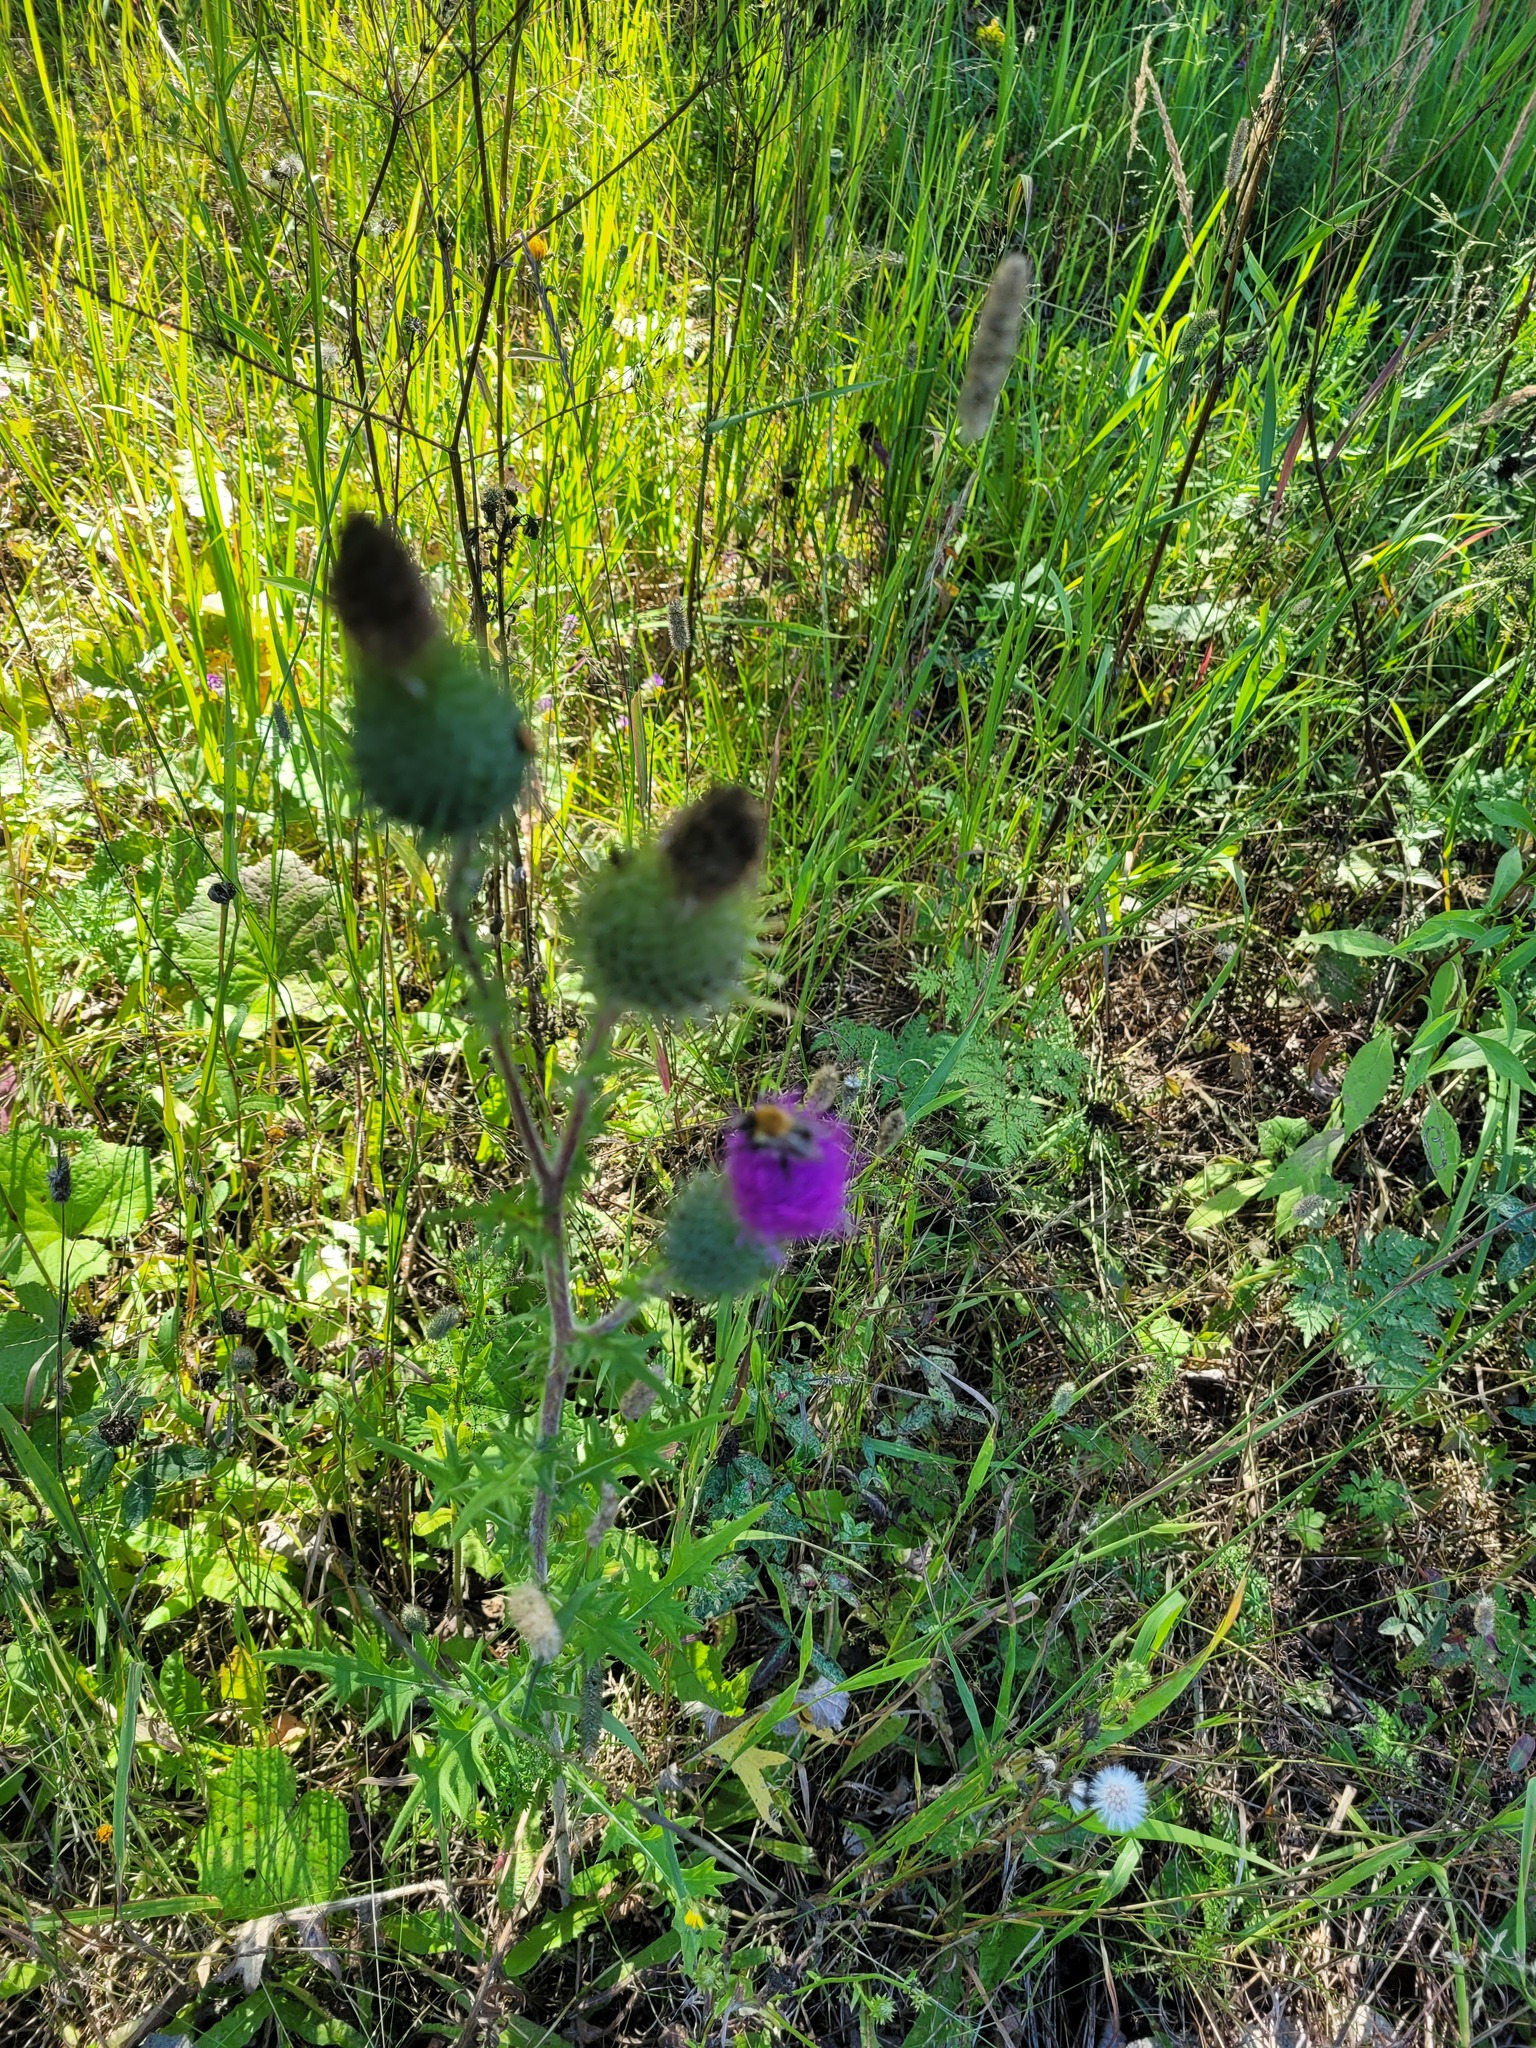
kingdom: Plantae
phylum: Tracheophyta
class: Magnoliopsida
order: Asterales
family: Asteraceae
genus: Cirsium
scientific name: Cirsium vulgare
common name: Bull thistle
